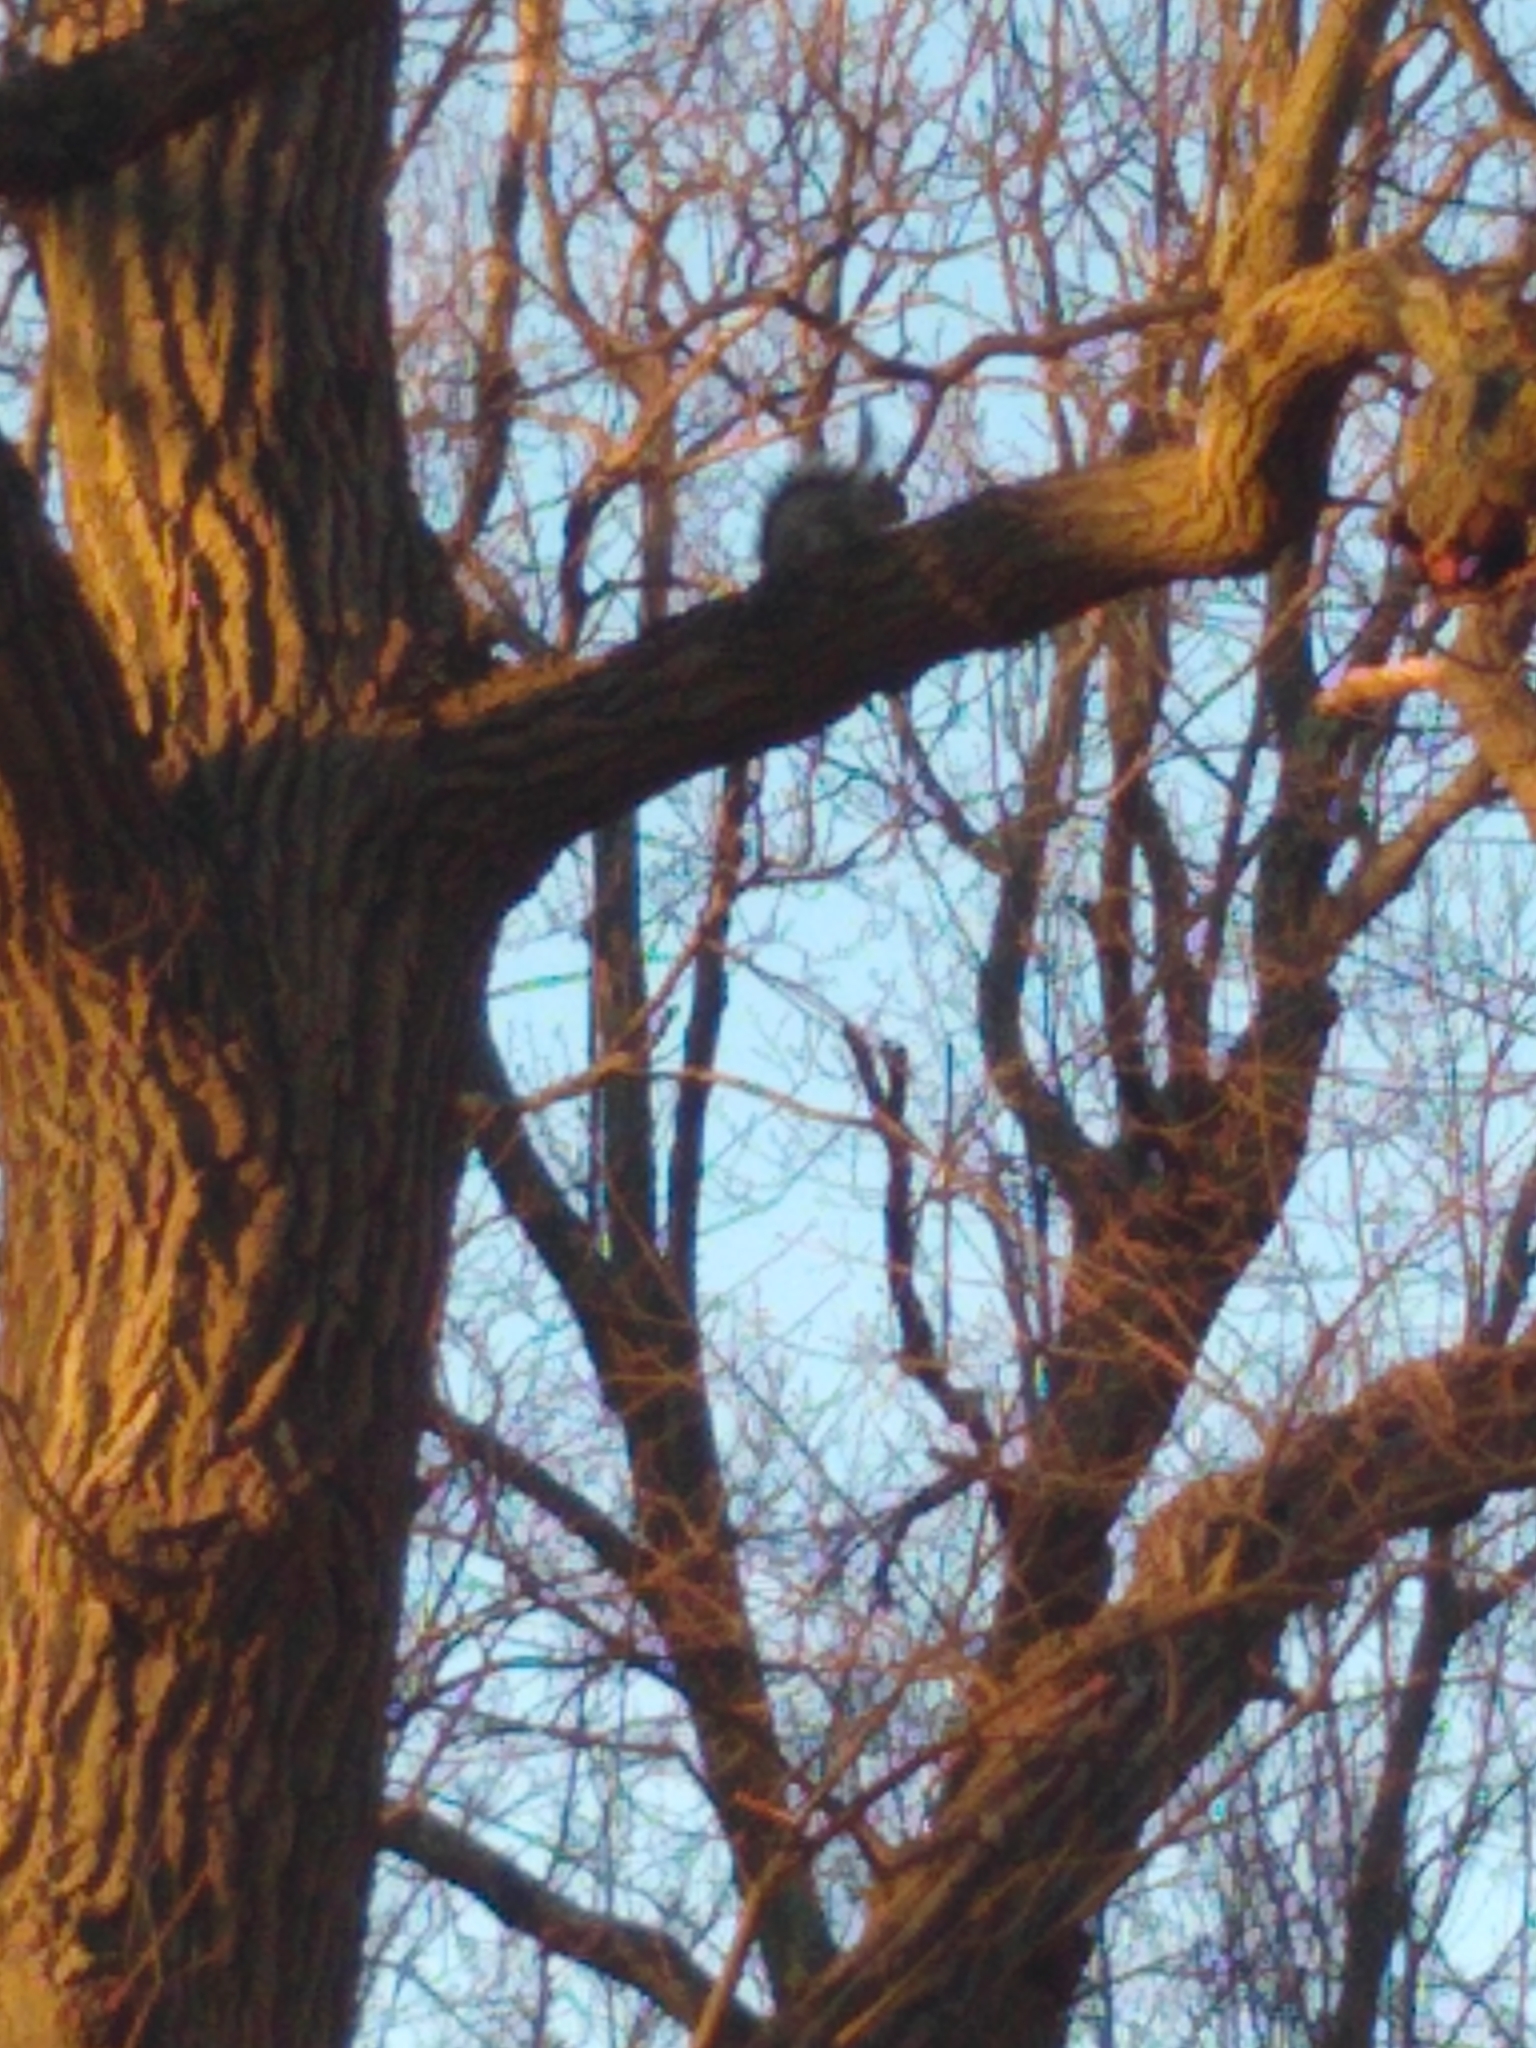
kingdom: Animalia
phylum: Chordata
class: Mammalia
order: Rodentia
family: Sciuridae
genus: Sciurus
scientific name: Sciurus carolinensis
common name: Eastern gray squirrel
